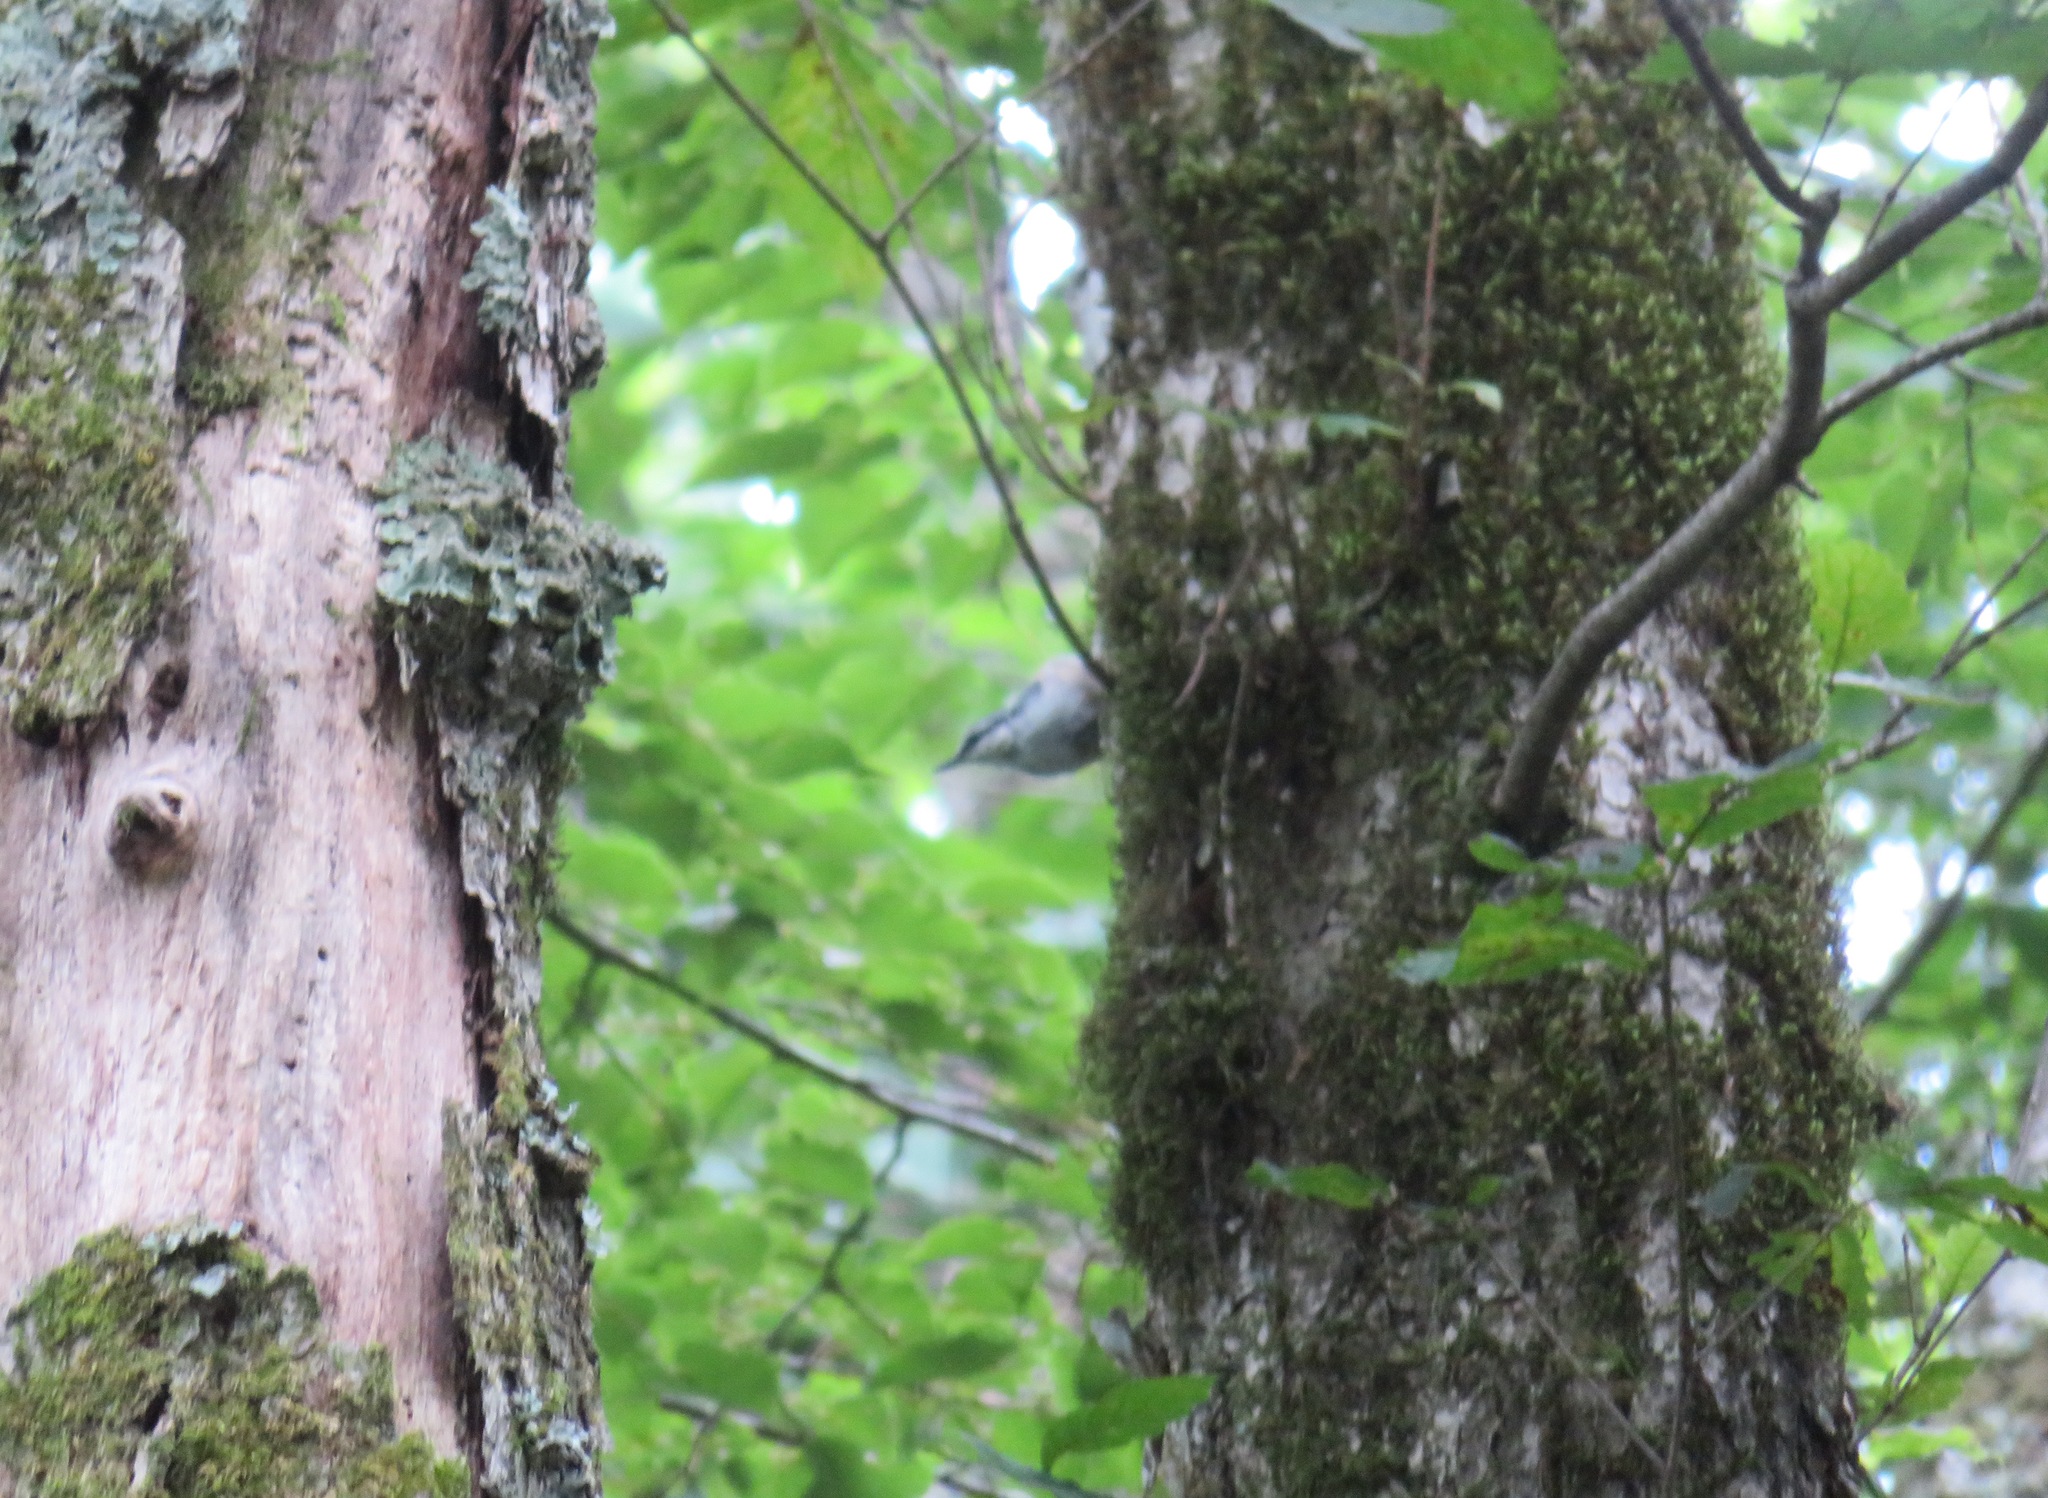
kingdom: Animalia
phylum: Chordata
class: Aves
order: Passeriformes
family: Sittidae
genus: Sitta
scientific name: Sitta europaea
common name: Eurasian nuthatch
